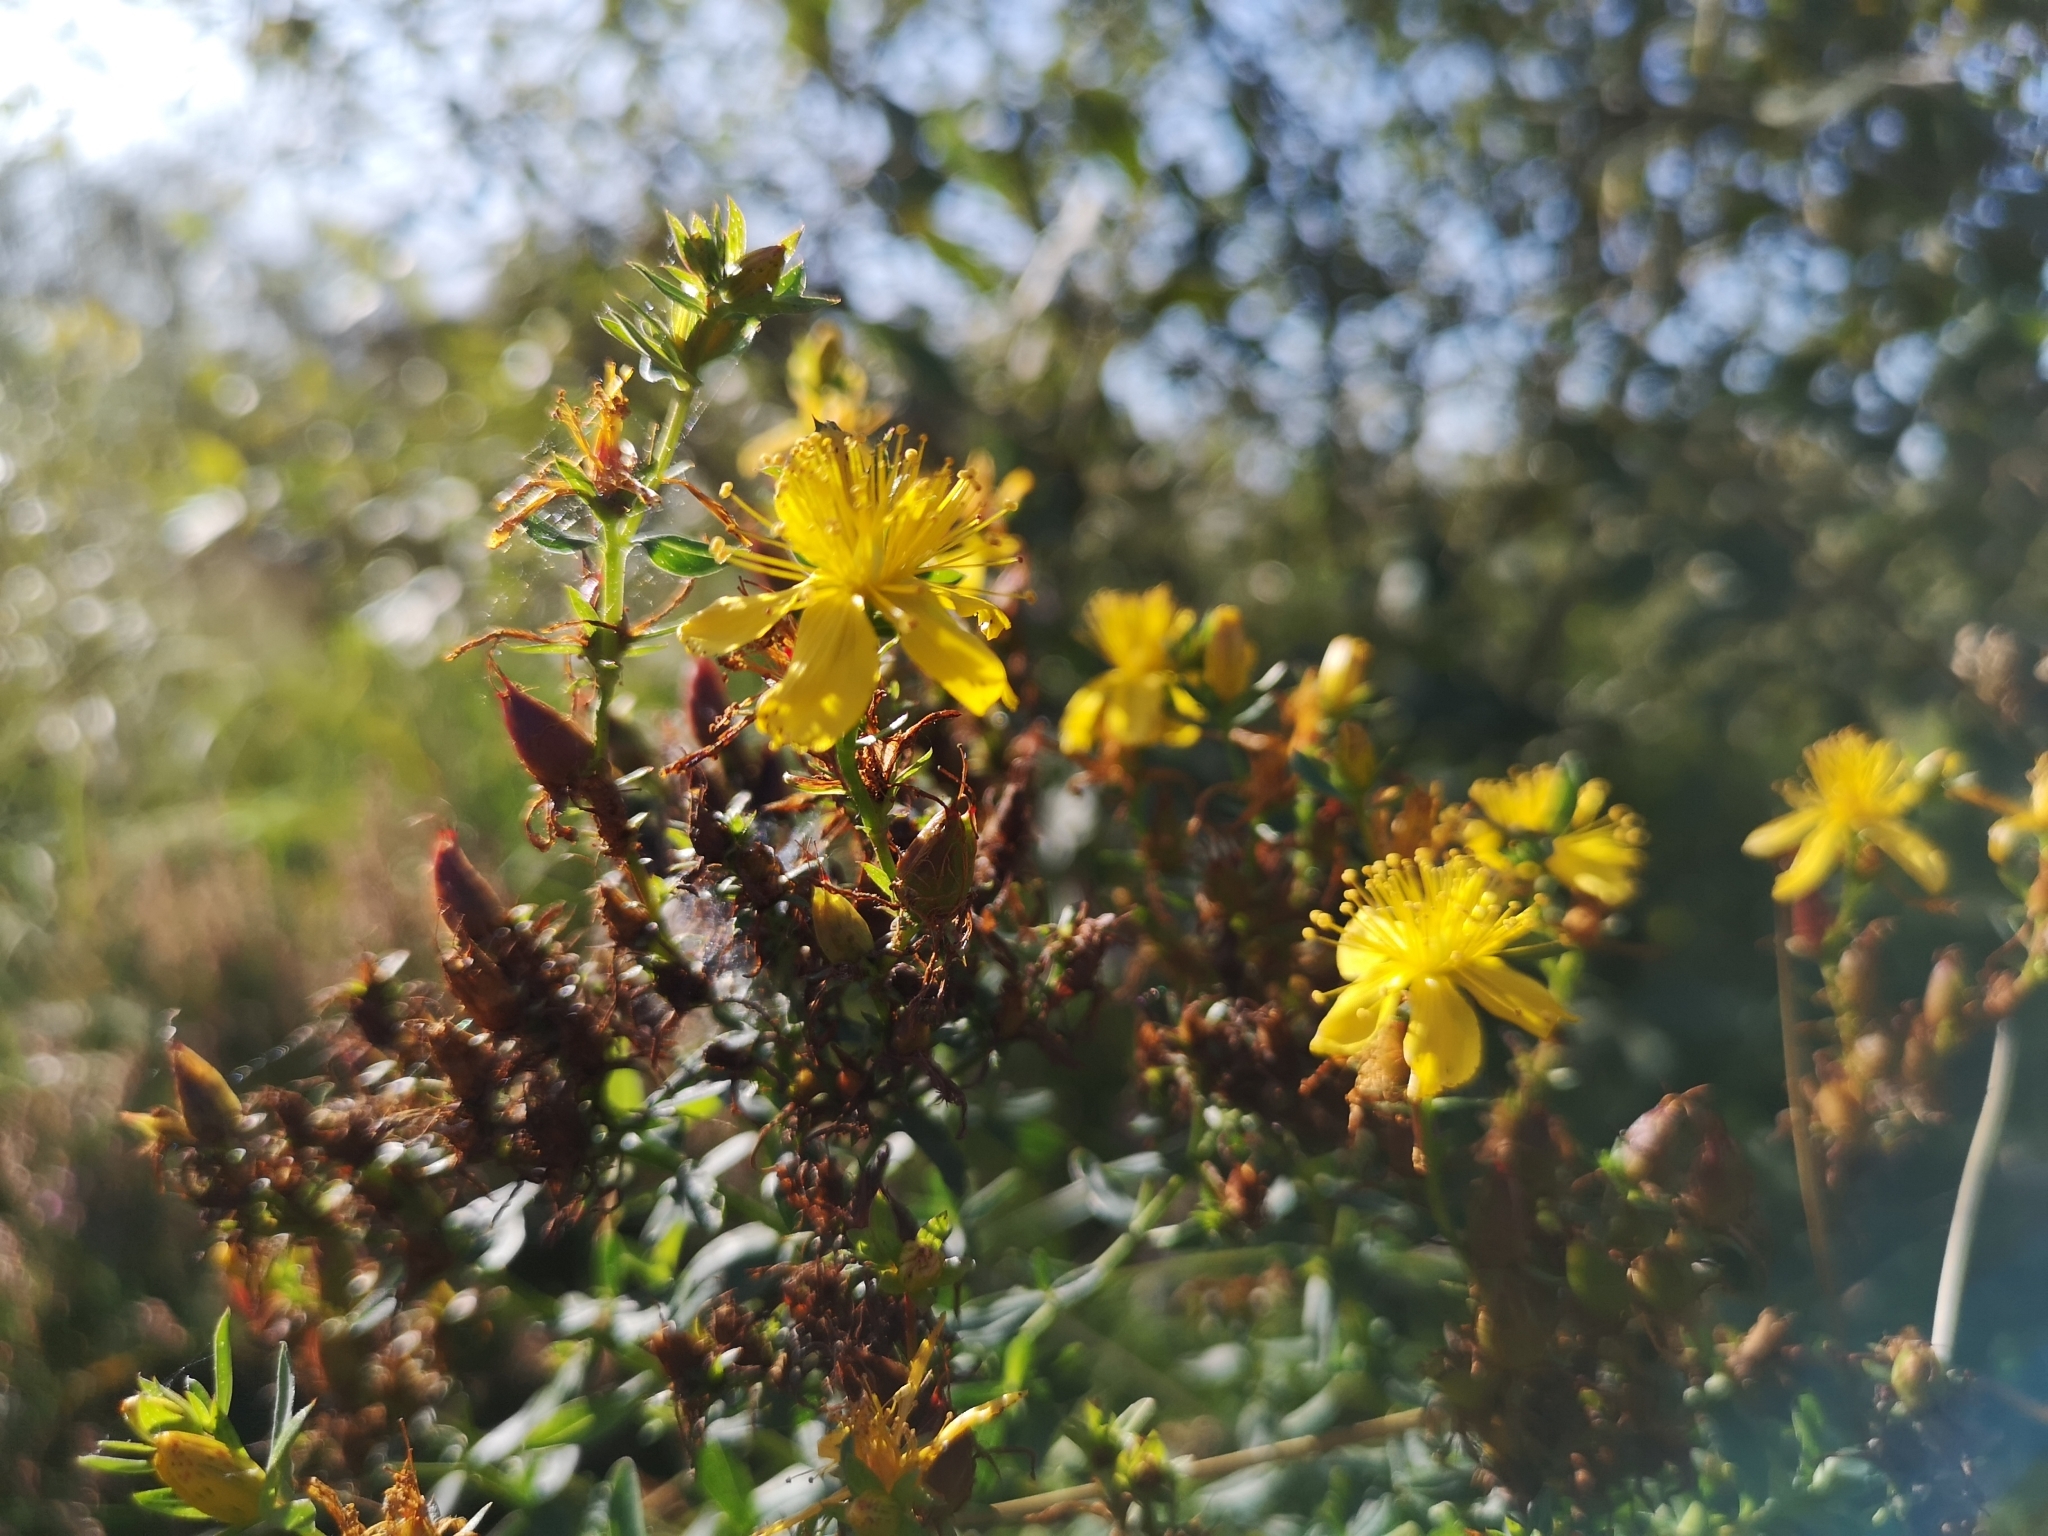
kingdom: Plantae
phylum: Tracheophyta
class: Magnoliopsida
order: Malpighiales
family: Hypericaceae
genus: Hypericum
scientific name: Hypericum perforatum
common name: Common st. johnswort
